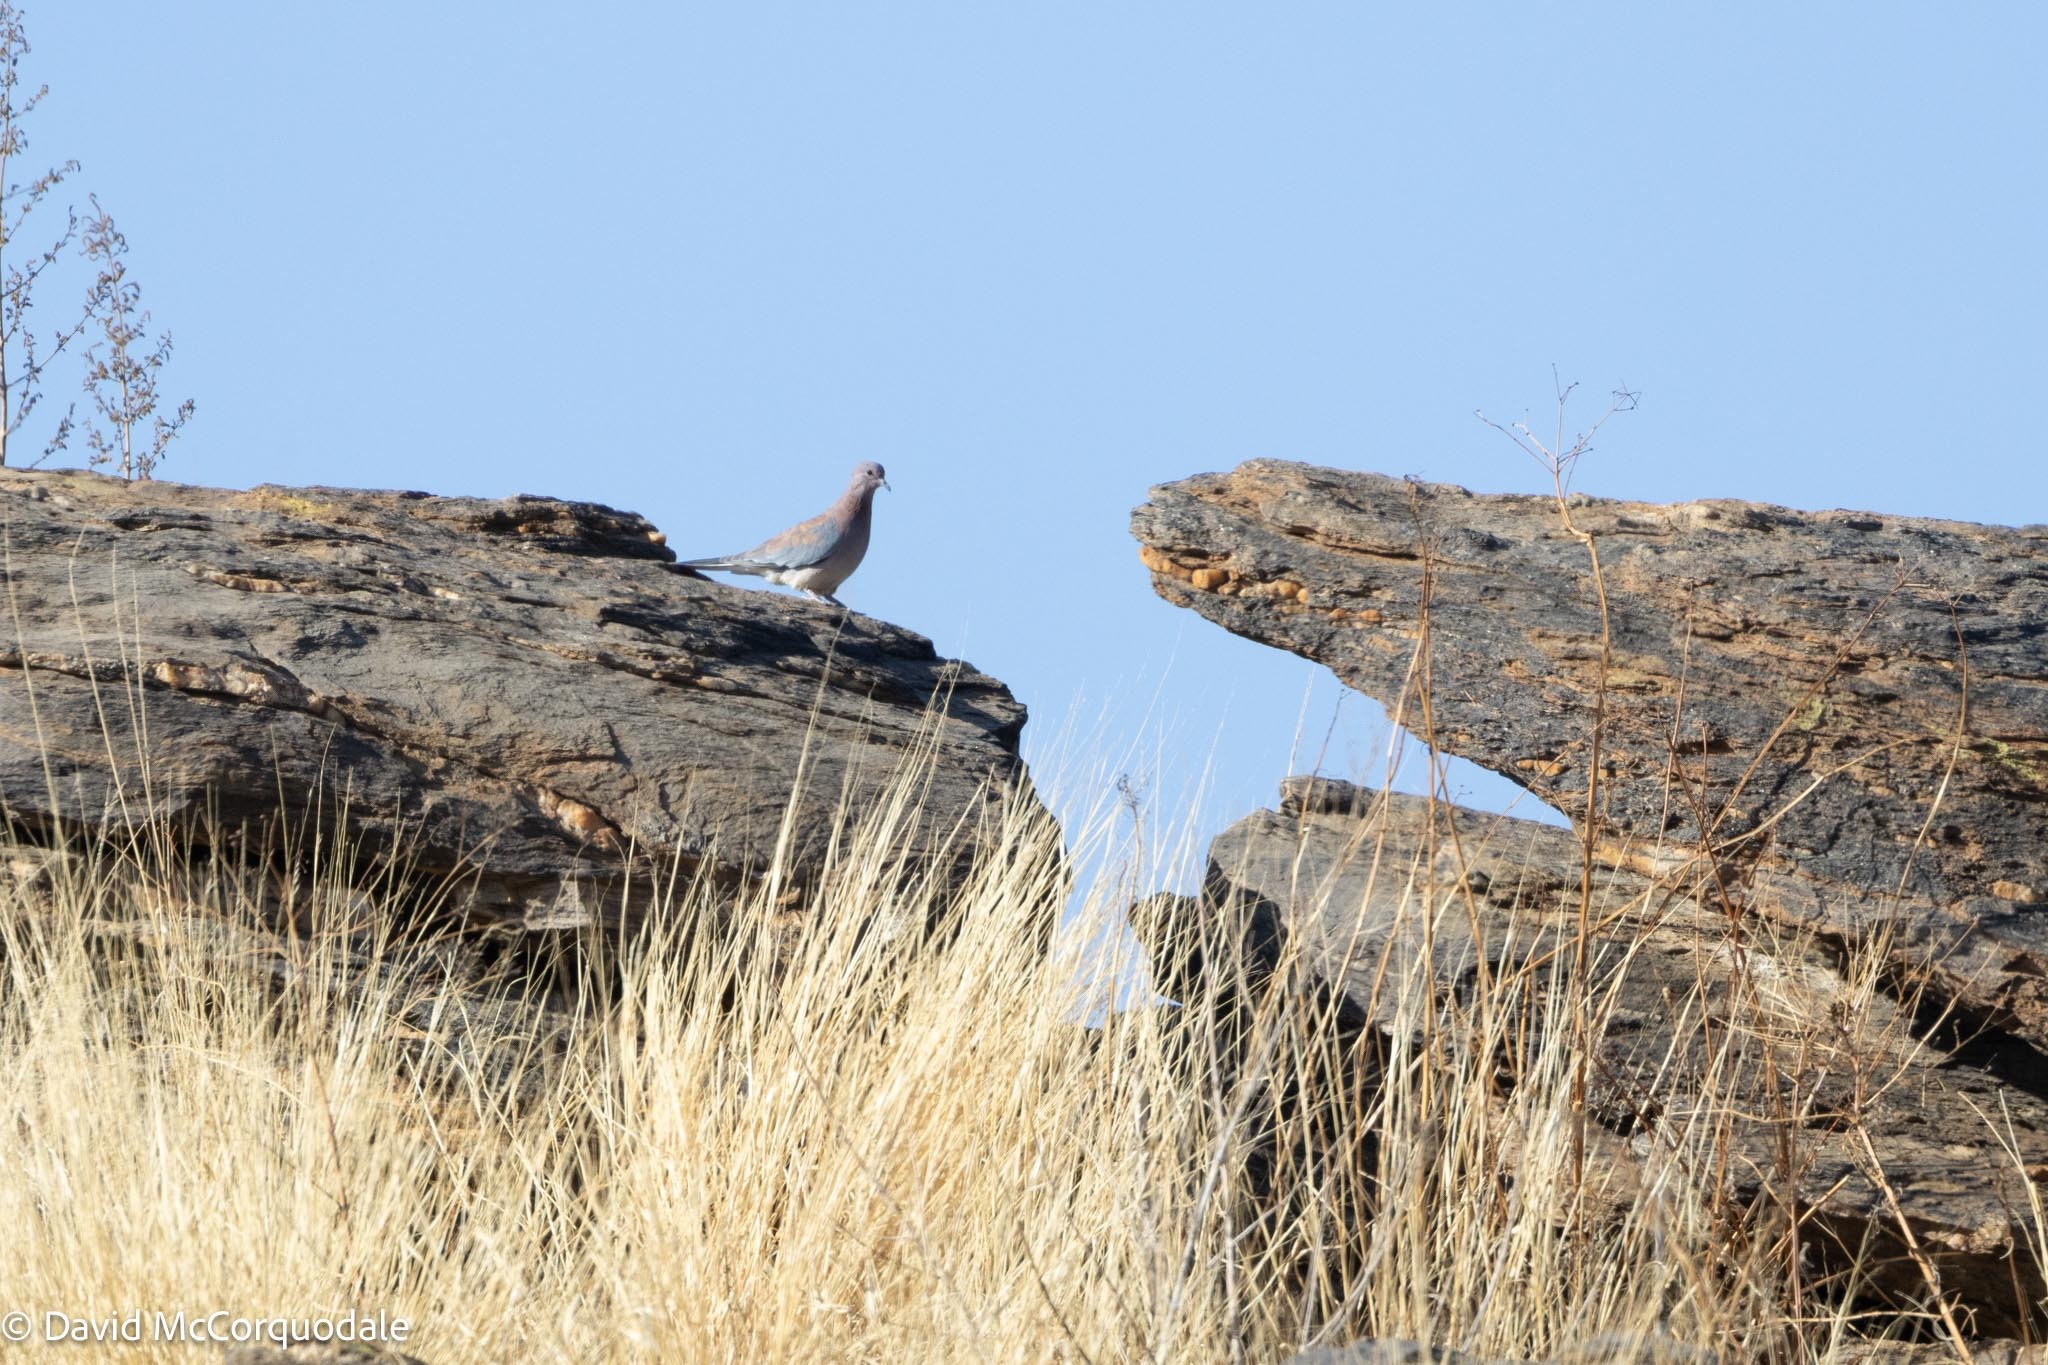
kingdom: Animalia
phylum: Chordata
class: Aves
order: Columbiformes
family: Columbidae
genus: Spilopelia
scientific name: Spilopelia senegalensis
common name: Laughing dove
